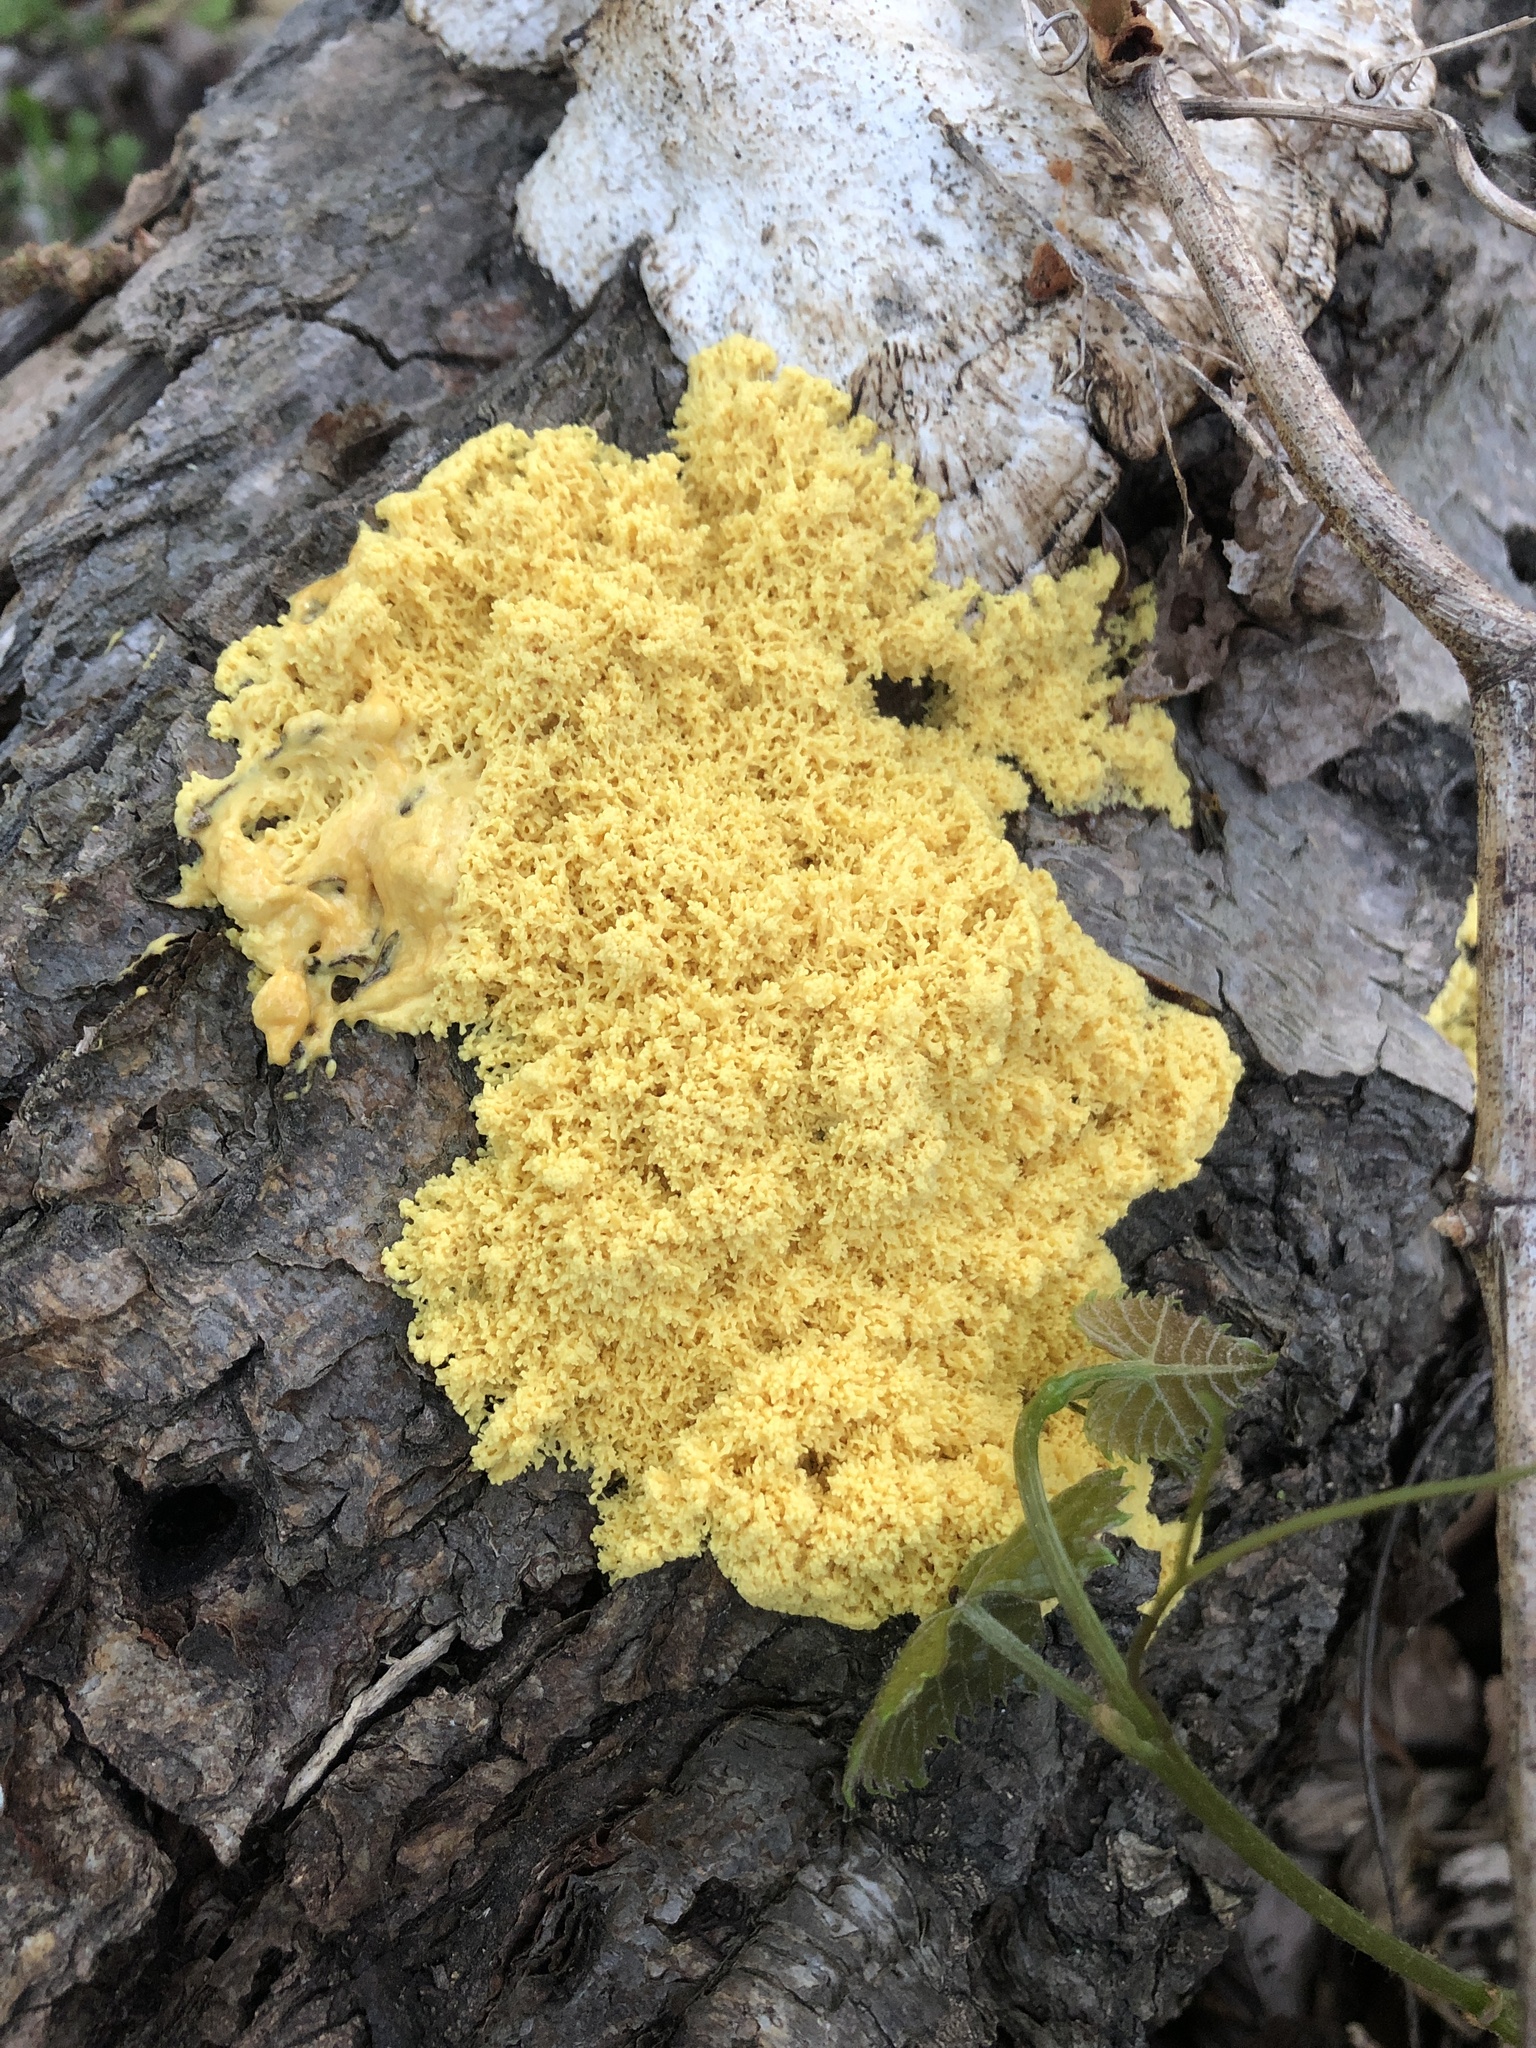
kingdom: Protozoa
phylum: Mycetozoa
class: Myxomycetes
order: Physarales
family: Physaraceae
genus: Fuligo
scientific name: Fuligo septica
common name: Dog vomit slime mold
